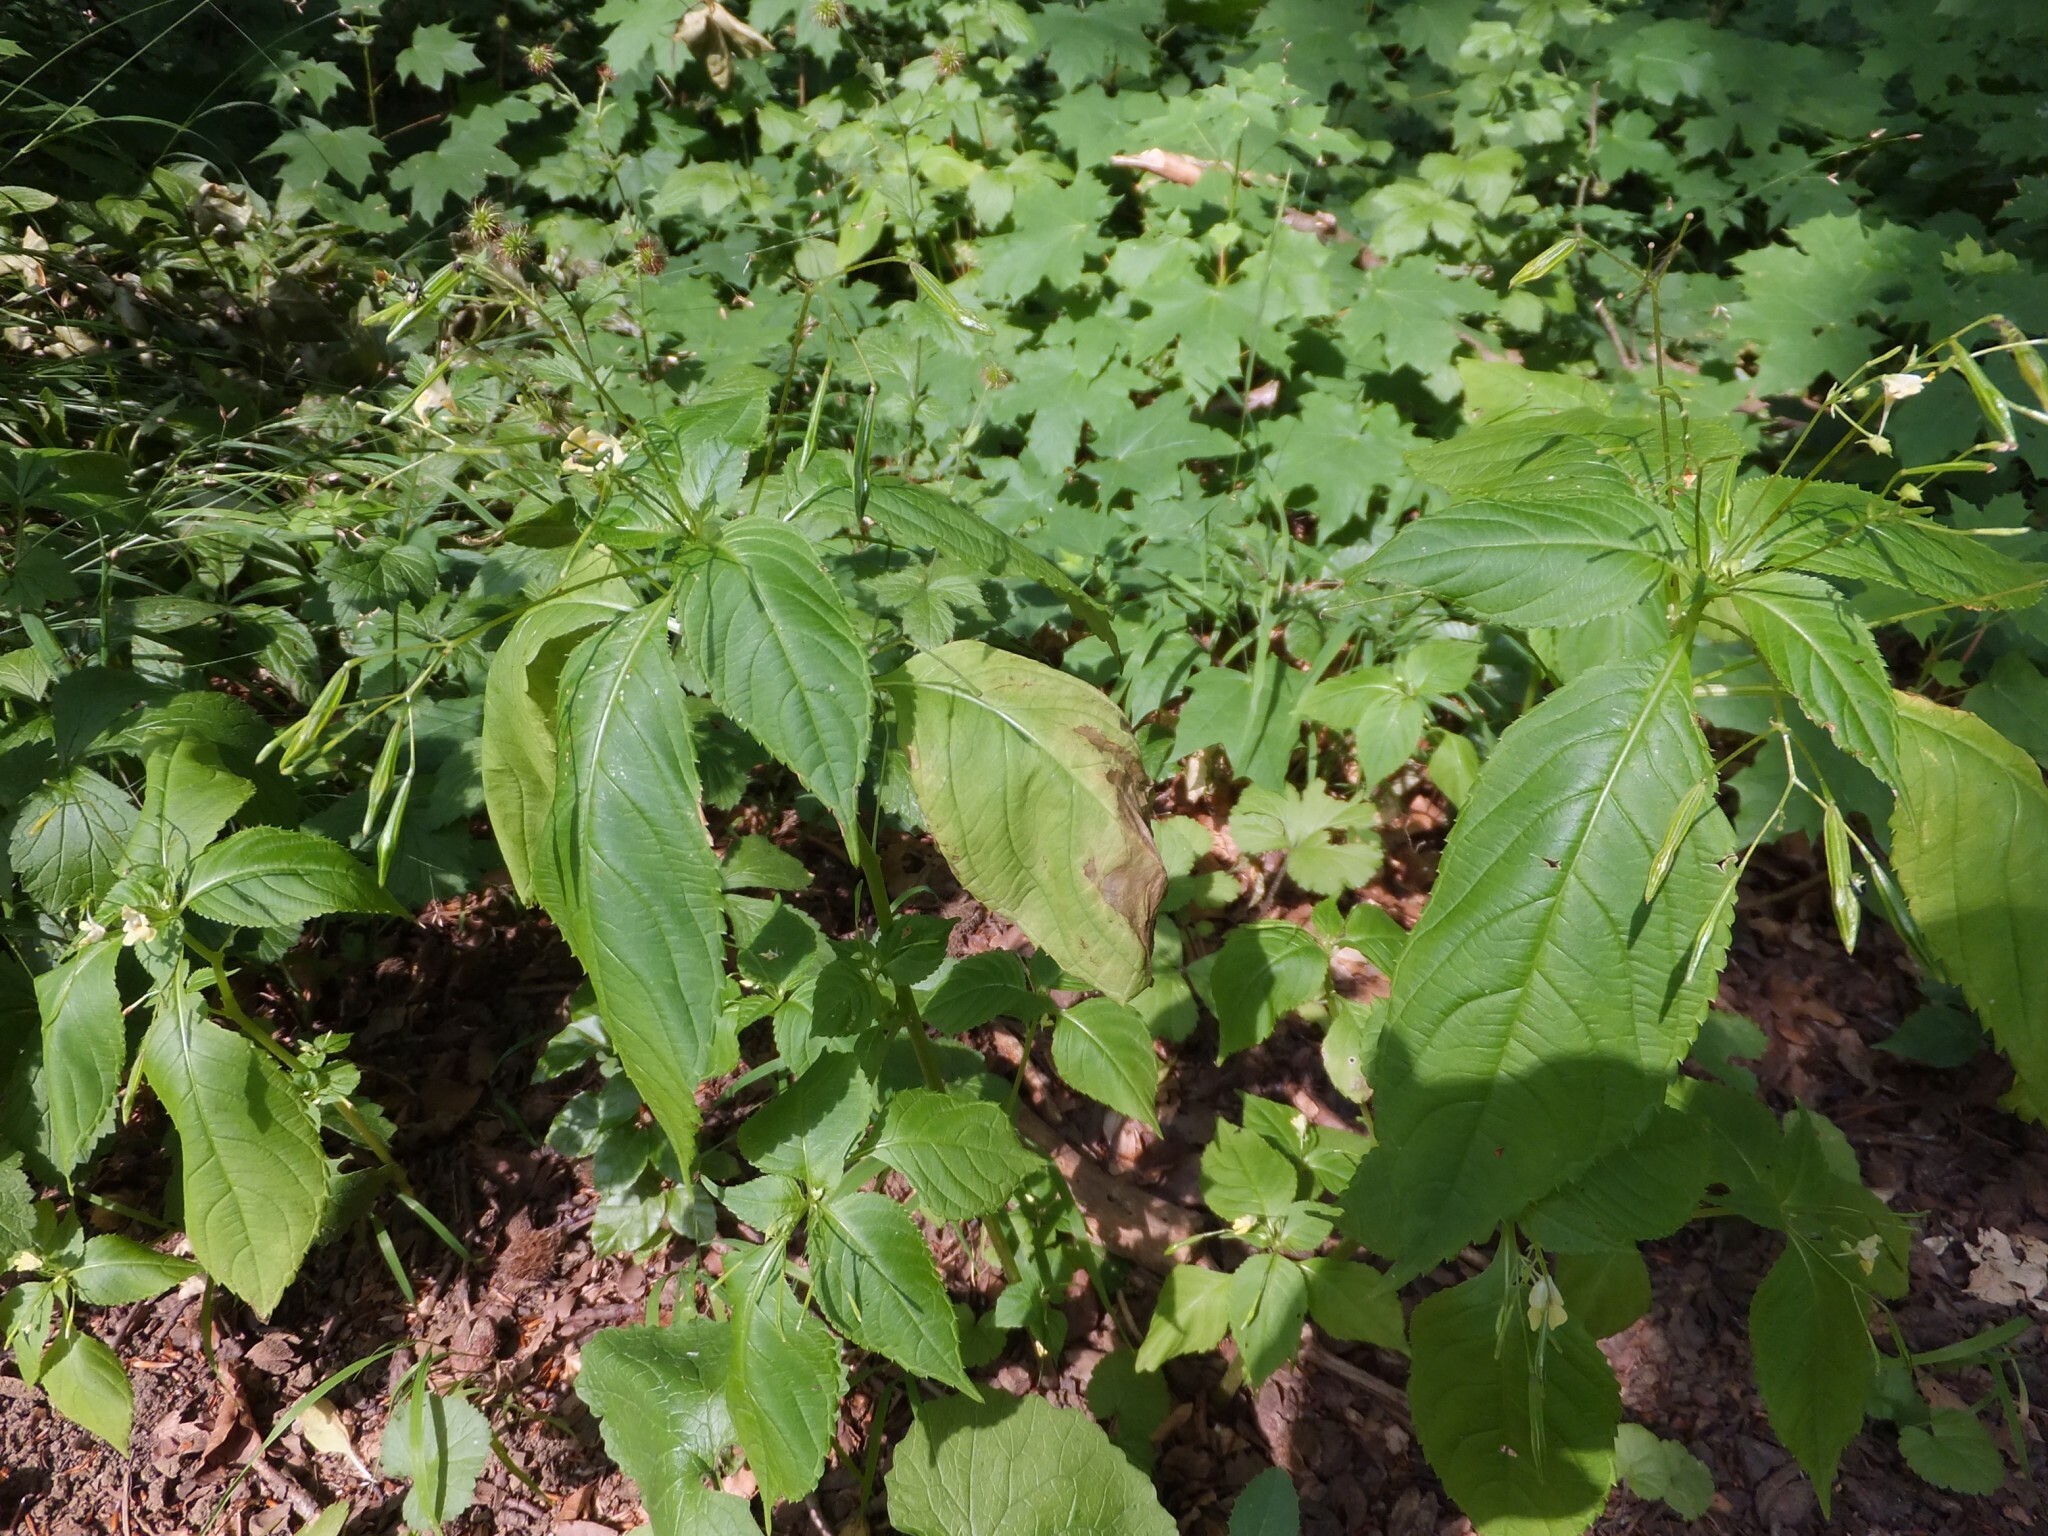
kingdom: Plantae
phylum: Tracheophyta
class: Magnoliopsida
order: Ericales
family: Balsaminaceae
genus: Impatiens
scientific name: Impatiens parviflora
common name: Small balsam
